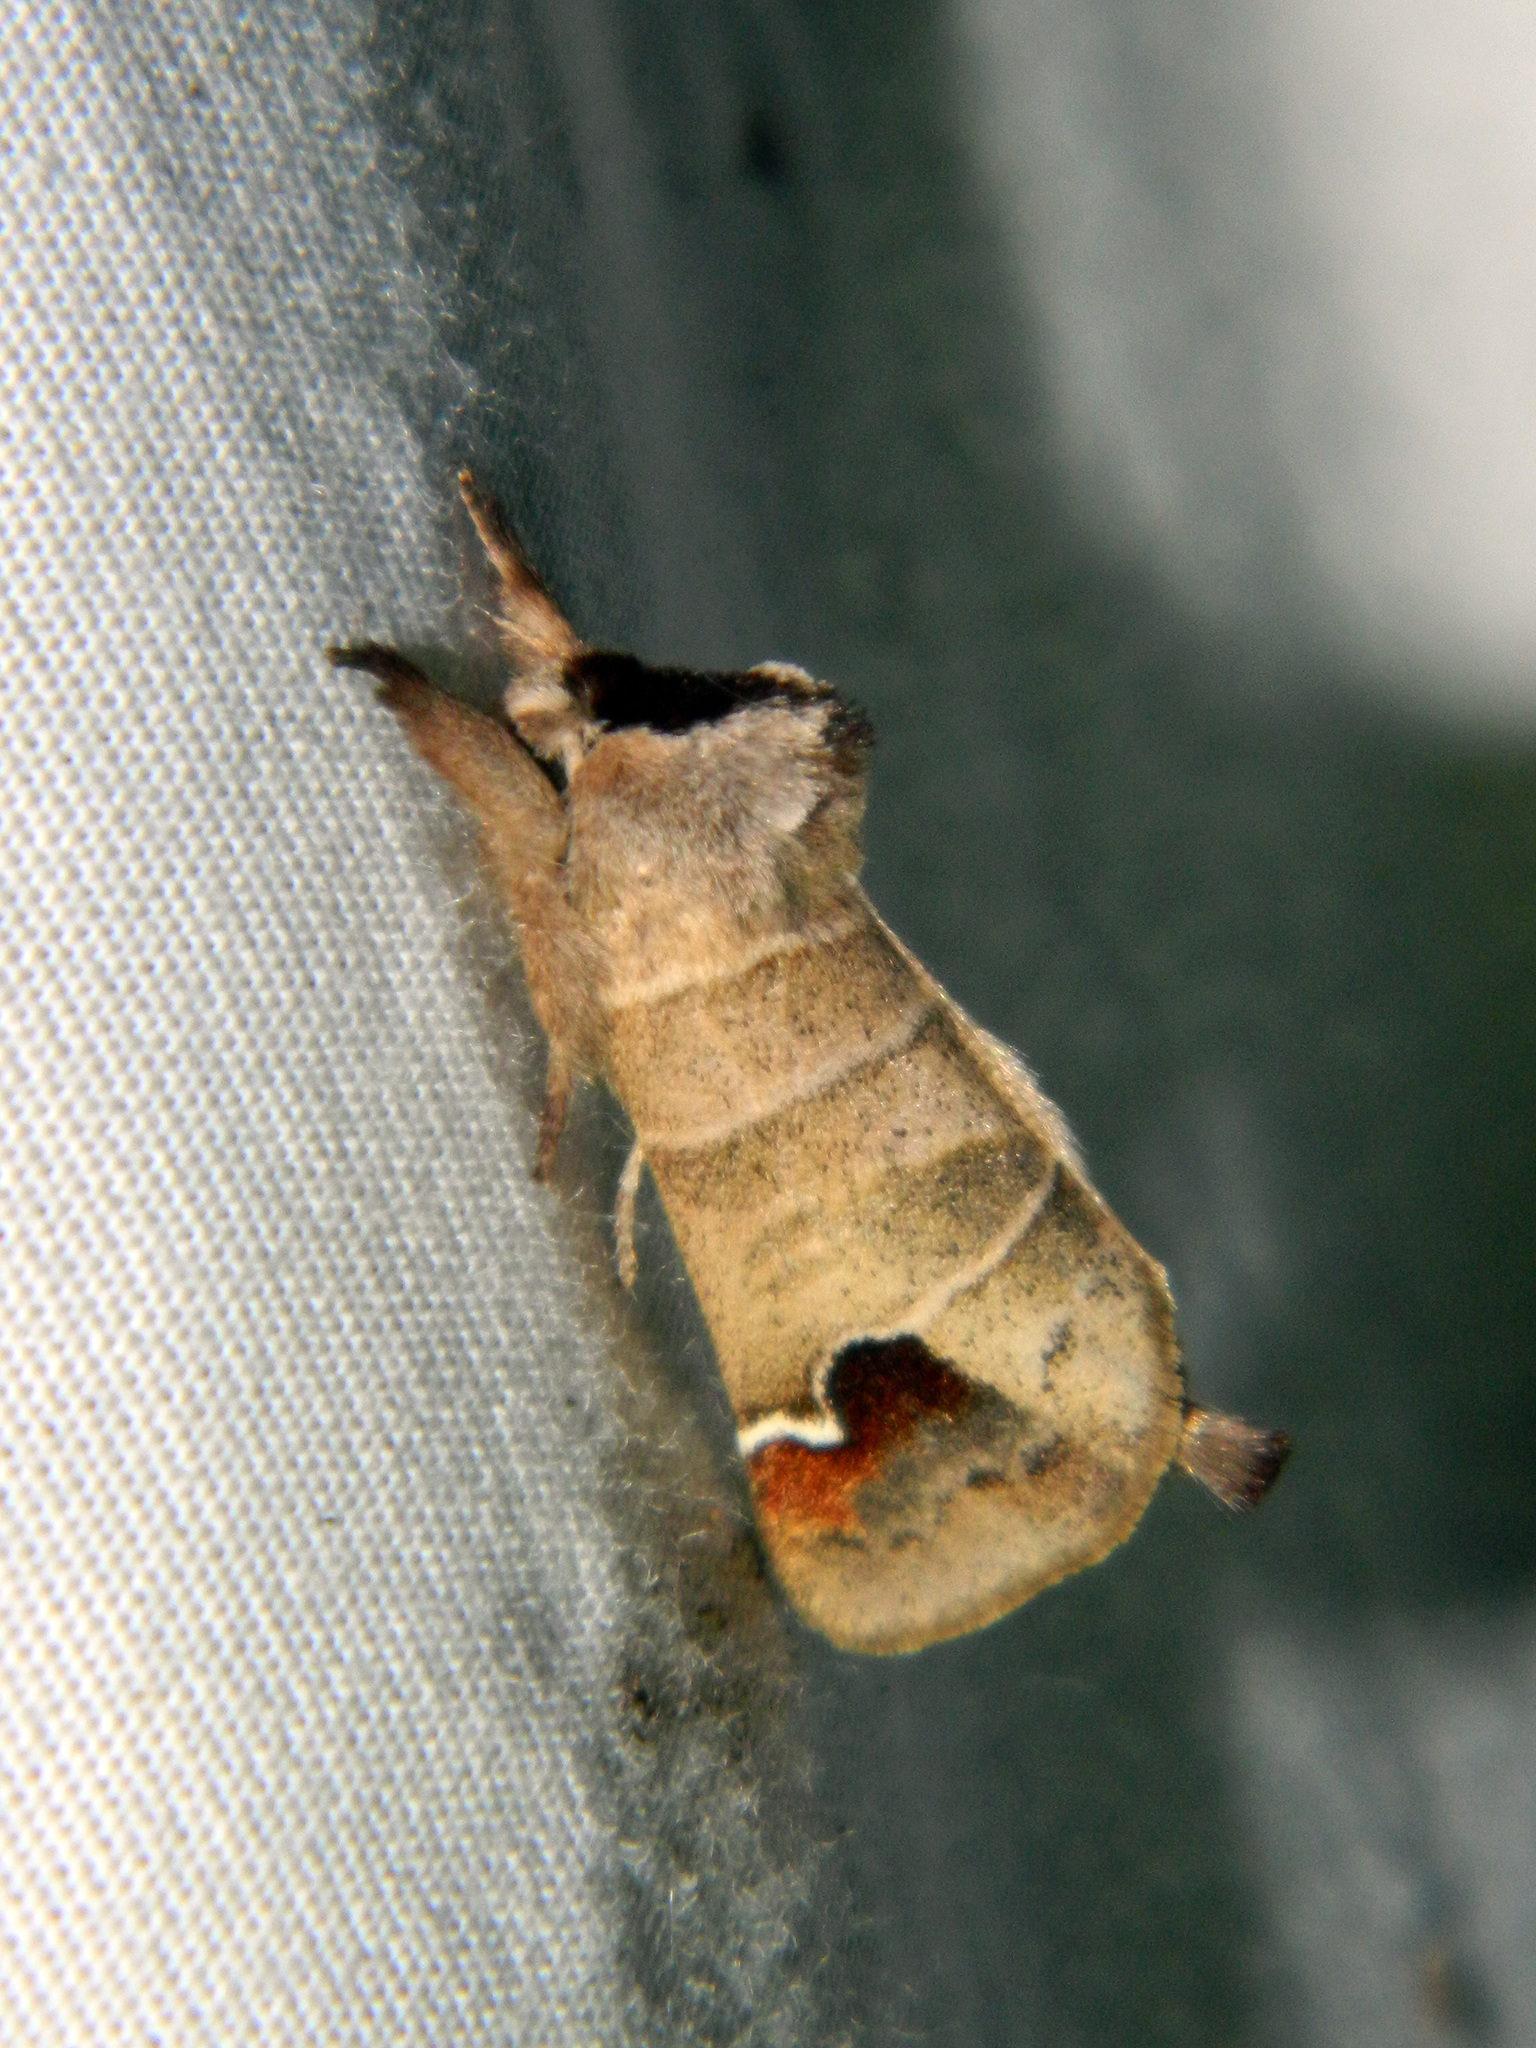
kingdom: Animalia
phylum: Arthropoda
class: Insecta
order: Lepidoptera
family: Notodontidae
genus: Clostera
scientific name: Clostera albosigma
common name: Sigmoid prominent
